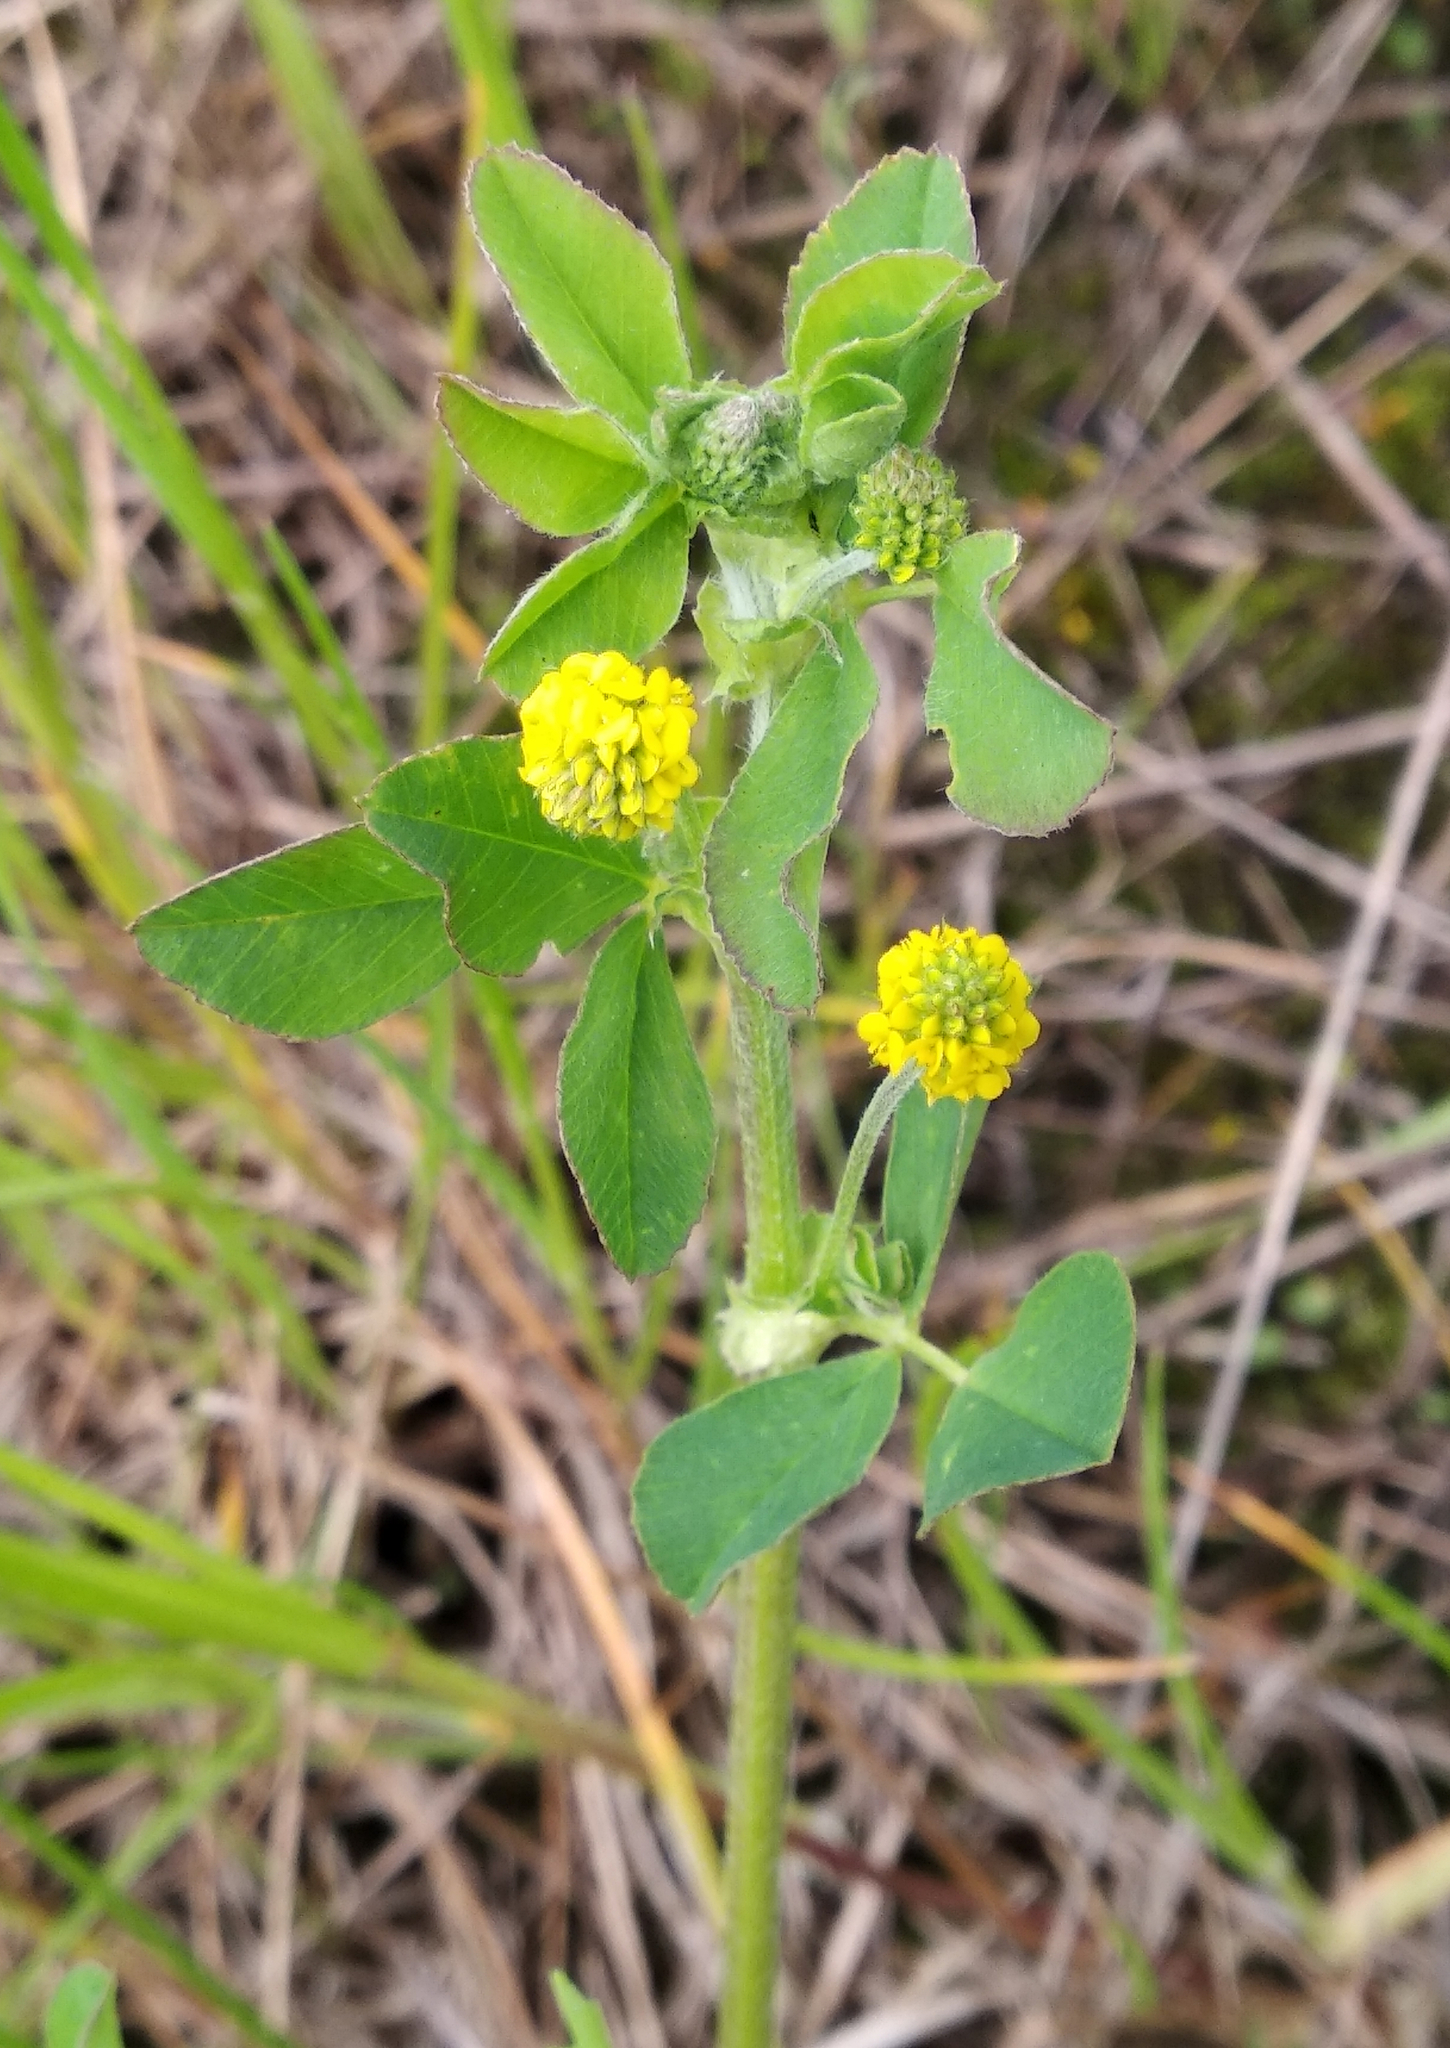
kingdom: Plantae
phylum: Tracheophyta
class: Magnoliopsida
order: Fabales
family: Fabaceae
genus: Medicago
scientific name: Medicago lupulina
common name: Black medick
